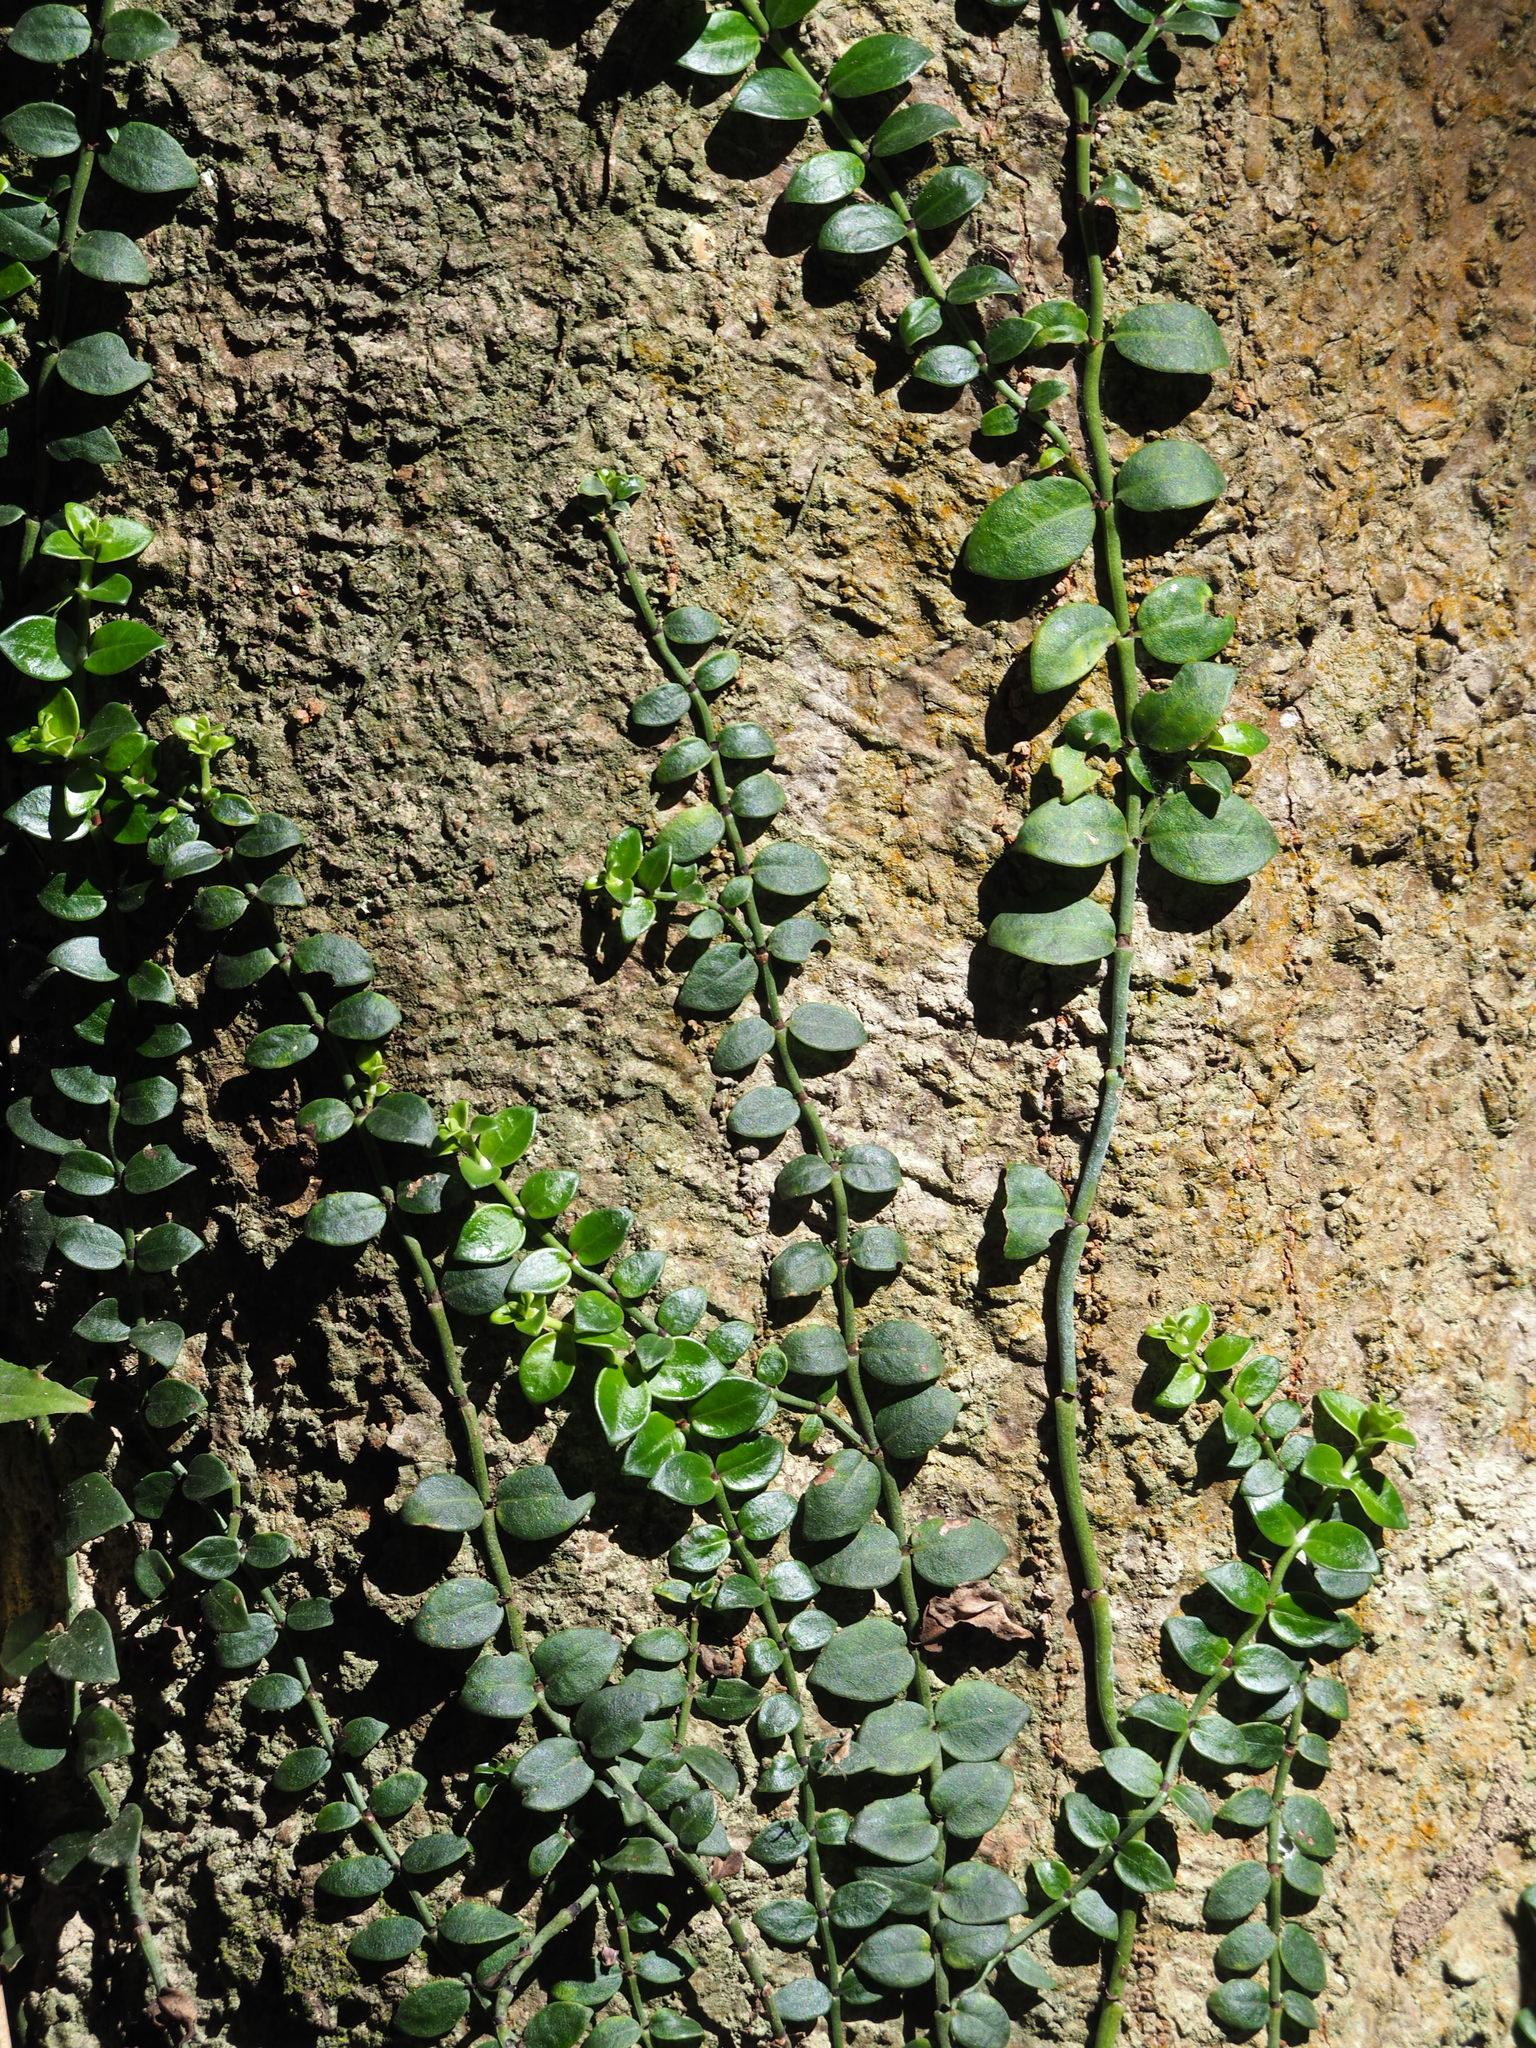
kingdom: Plantae
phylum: Tracheophyta
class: Magnoliopsida
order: Gentianales
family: Rubiaceae
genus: Psychotria
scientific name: Psychotria serpens
